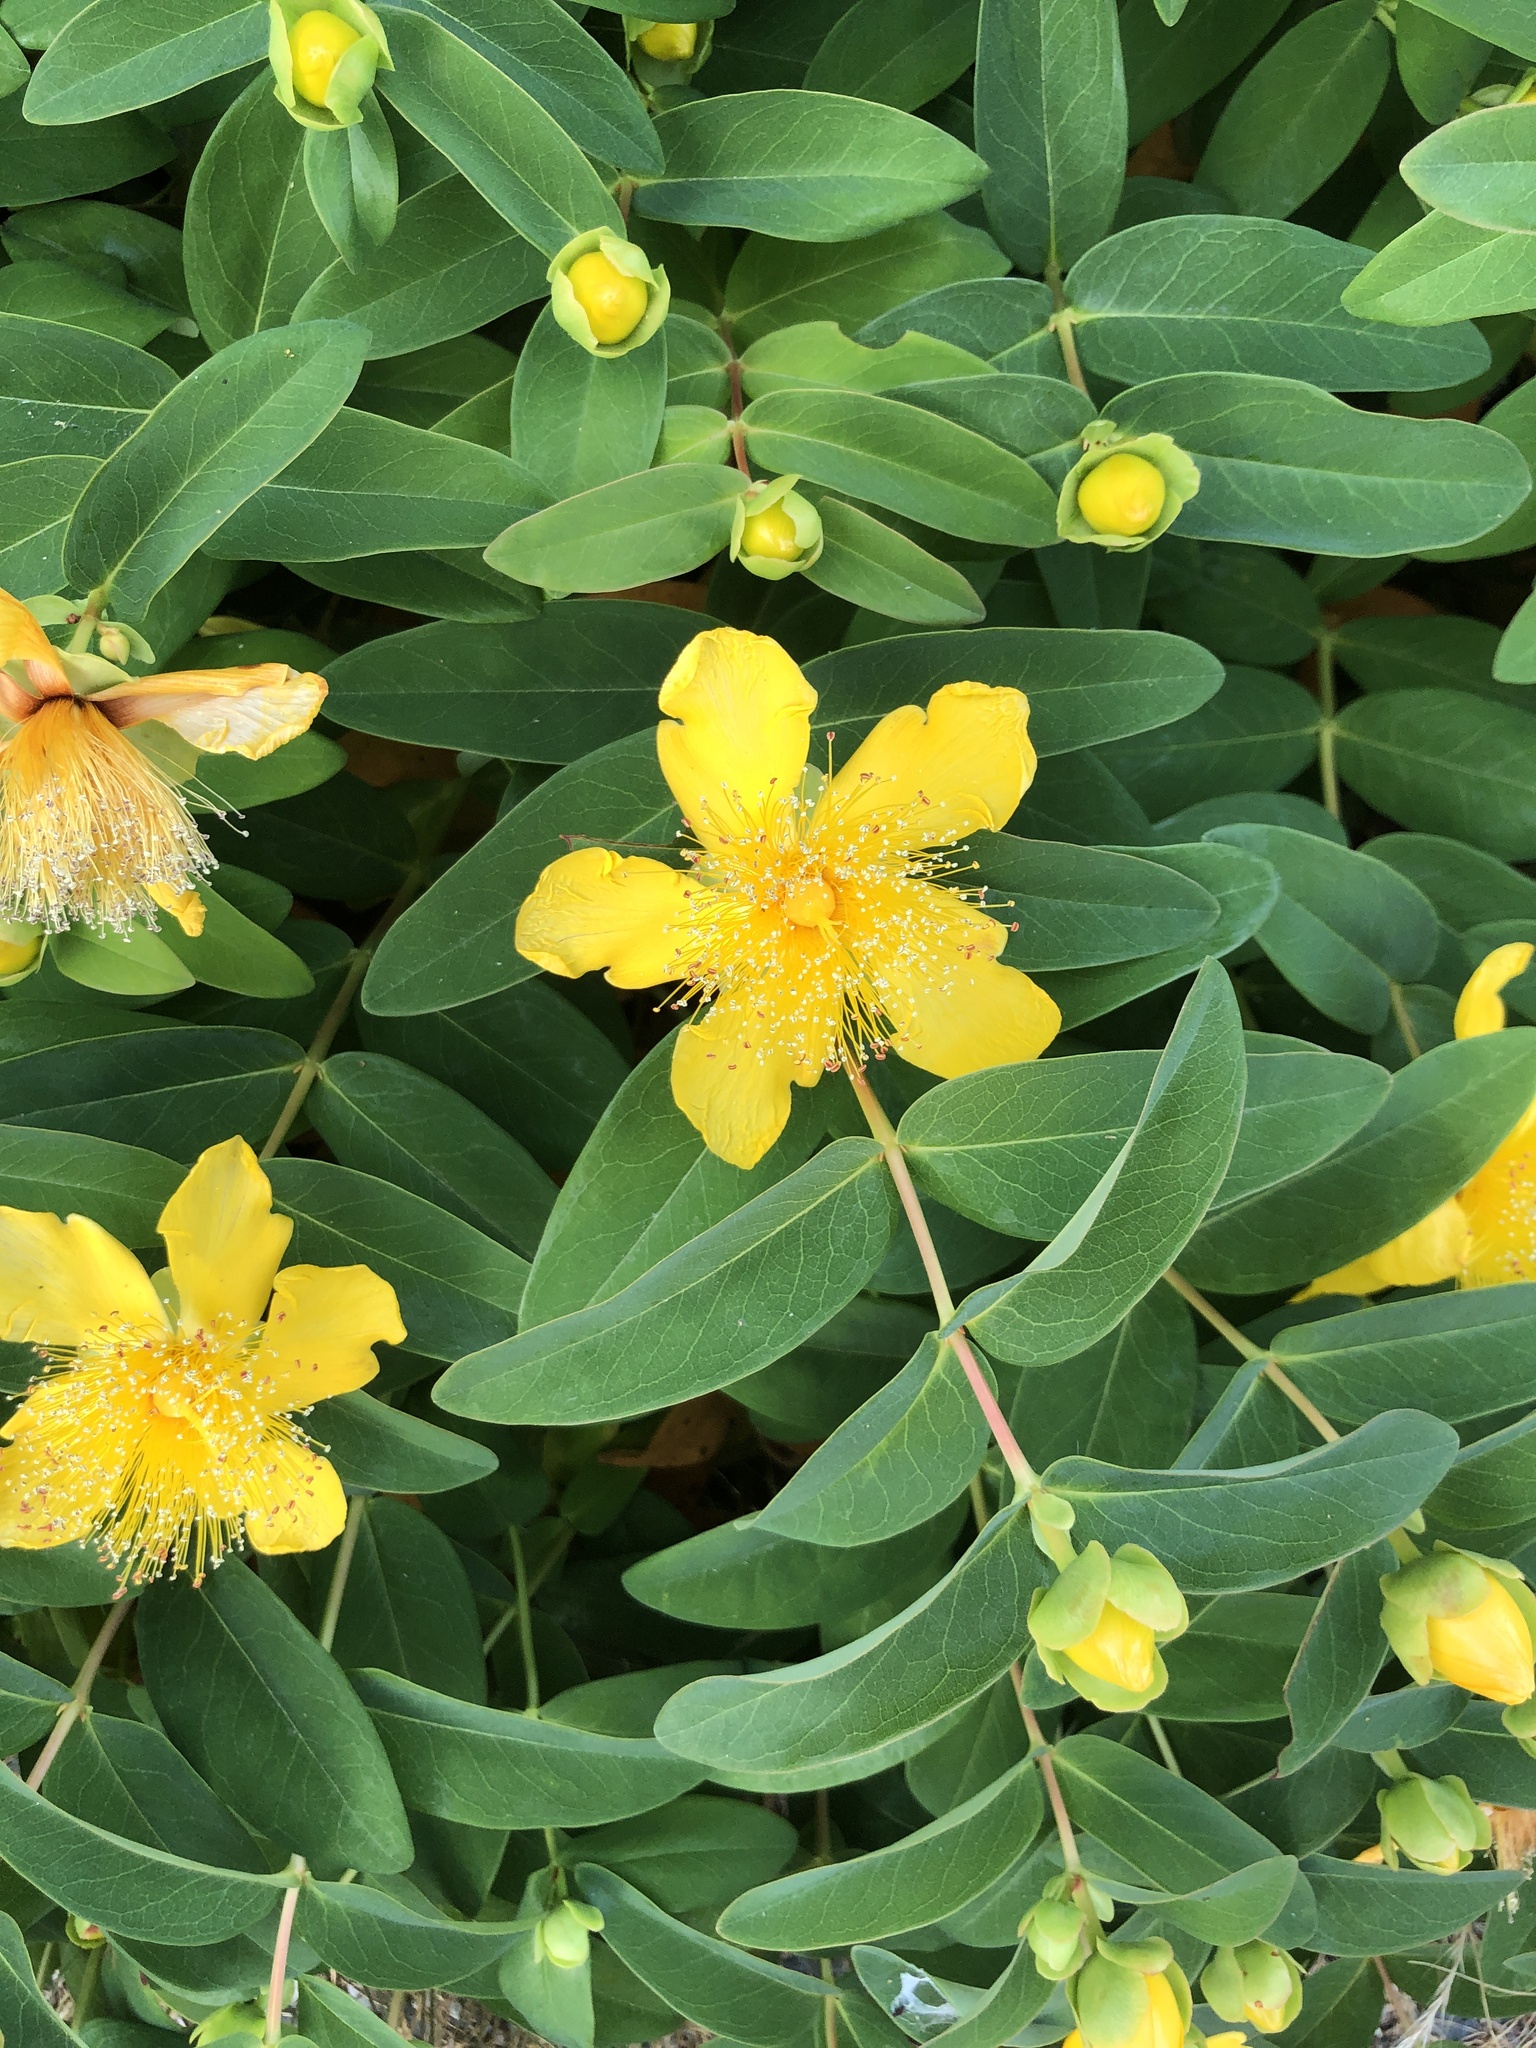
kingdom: Plantae
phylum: Tracheophyta
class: Magnoliopsida
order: Malpighiales
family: Hypericaceae
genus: Hypericum
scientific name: Hypericum calycinum
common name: Rose-of-sharon
